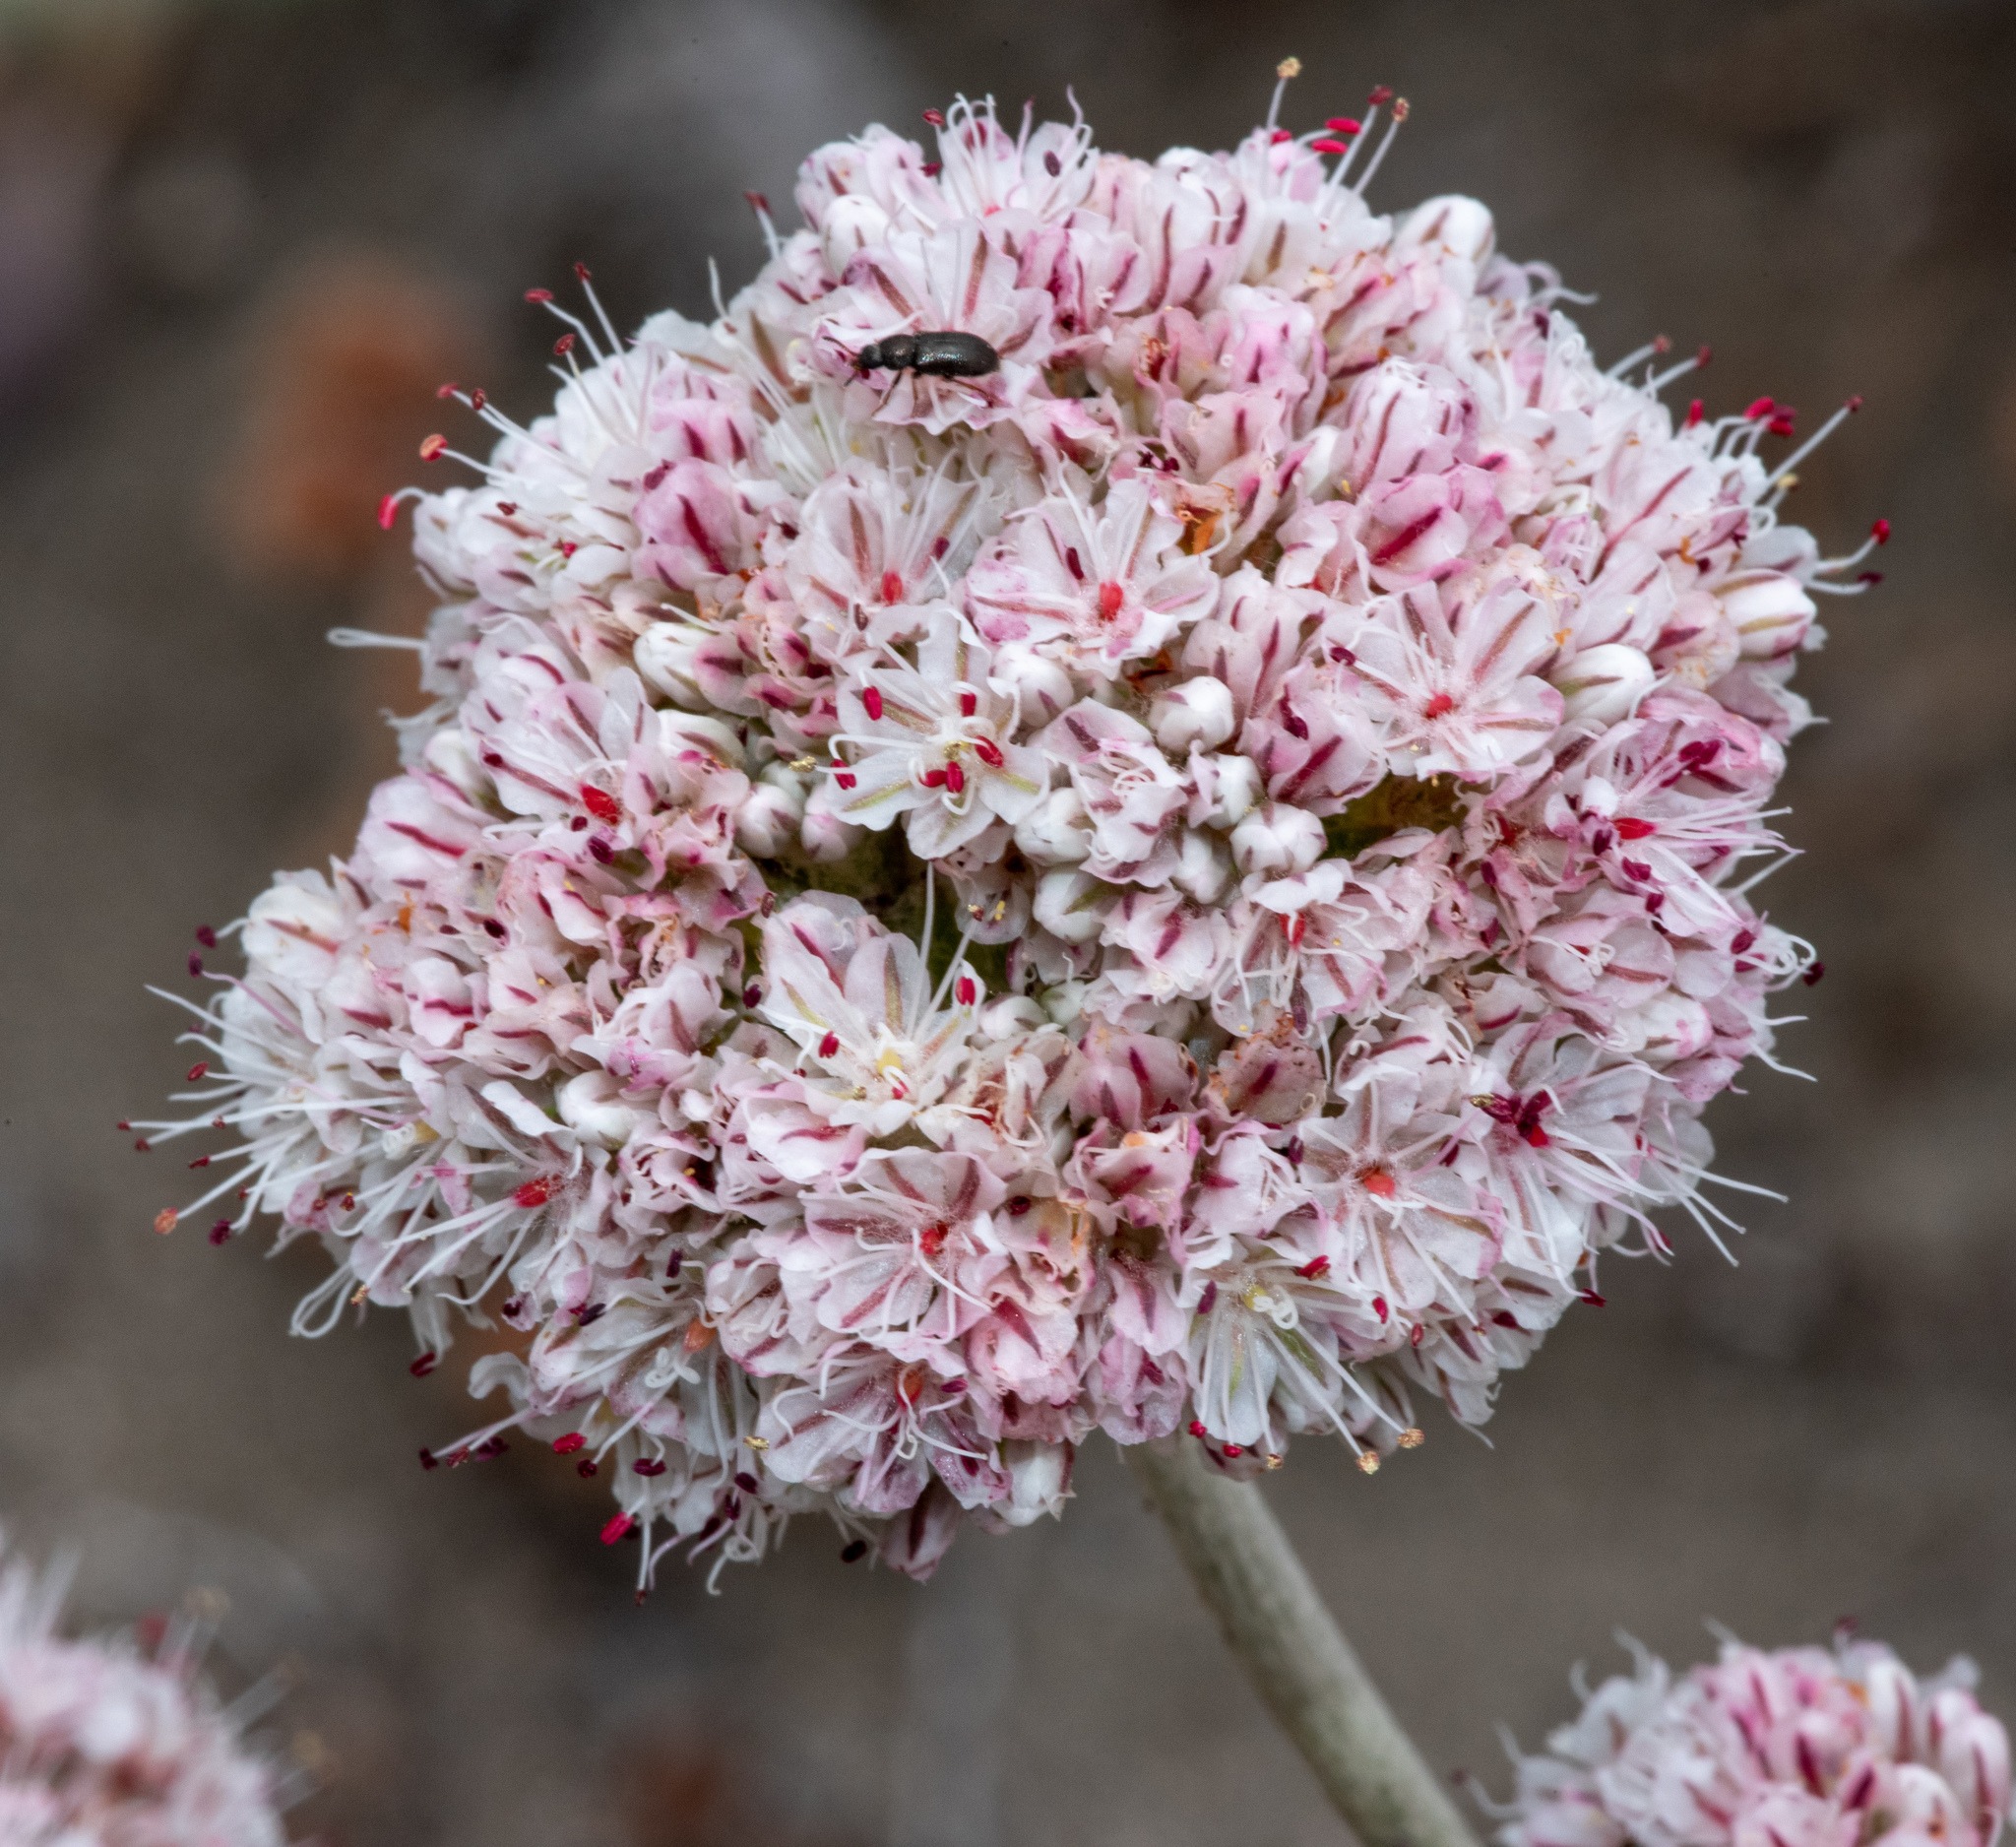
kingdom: Plantae
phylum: Tracheophyta
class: Magnoliopsida
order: Caryophyllales
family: Polygonaceae
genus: Eriogonum
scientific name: Eriogonum latifolium
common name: Seaside wild buckwheat
